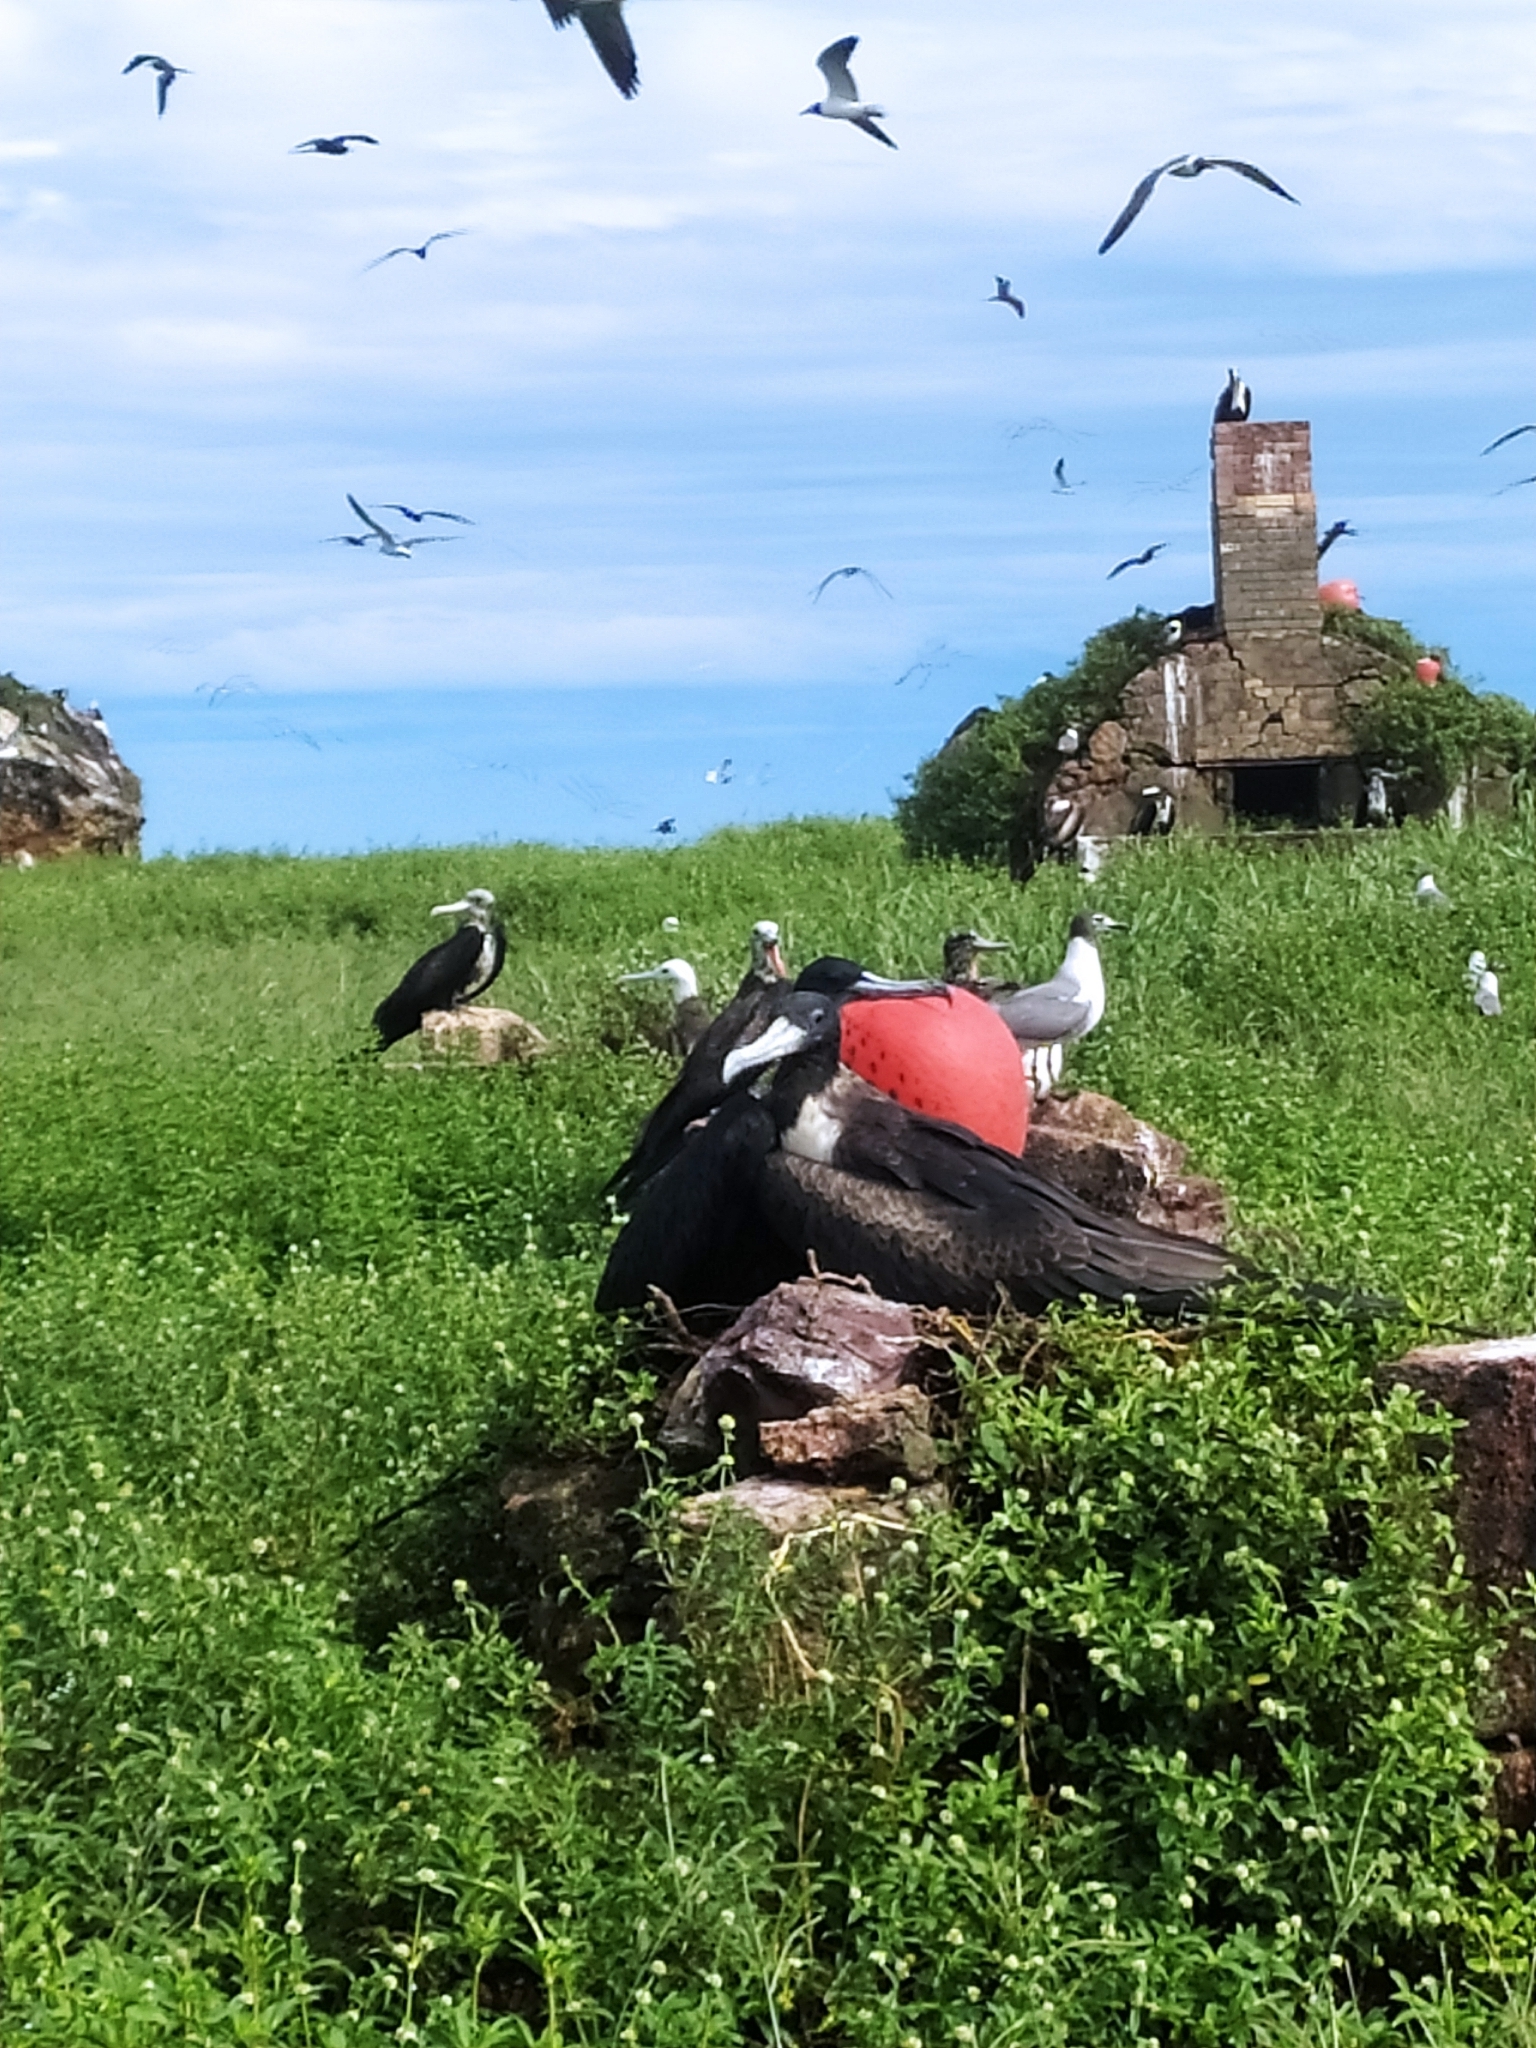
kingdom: Animalia
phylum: Chordata
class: Aves
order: Suliformes
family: Fregatidae
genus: Fregata
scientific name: Fregata magnificens
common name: Magnificent frigatebird
